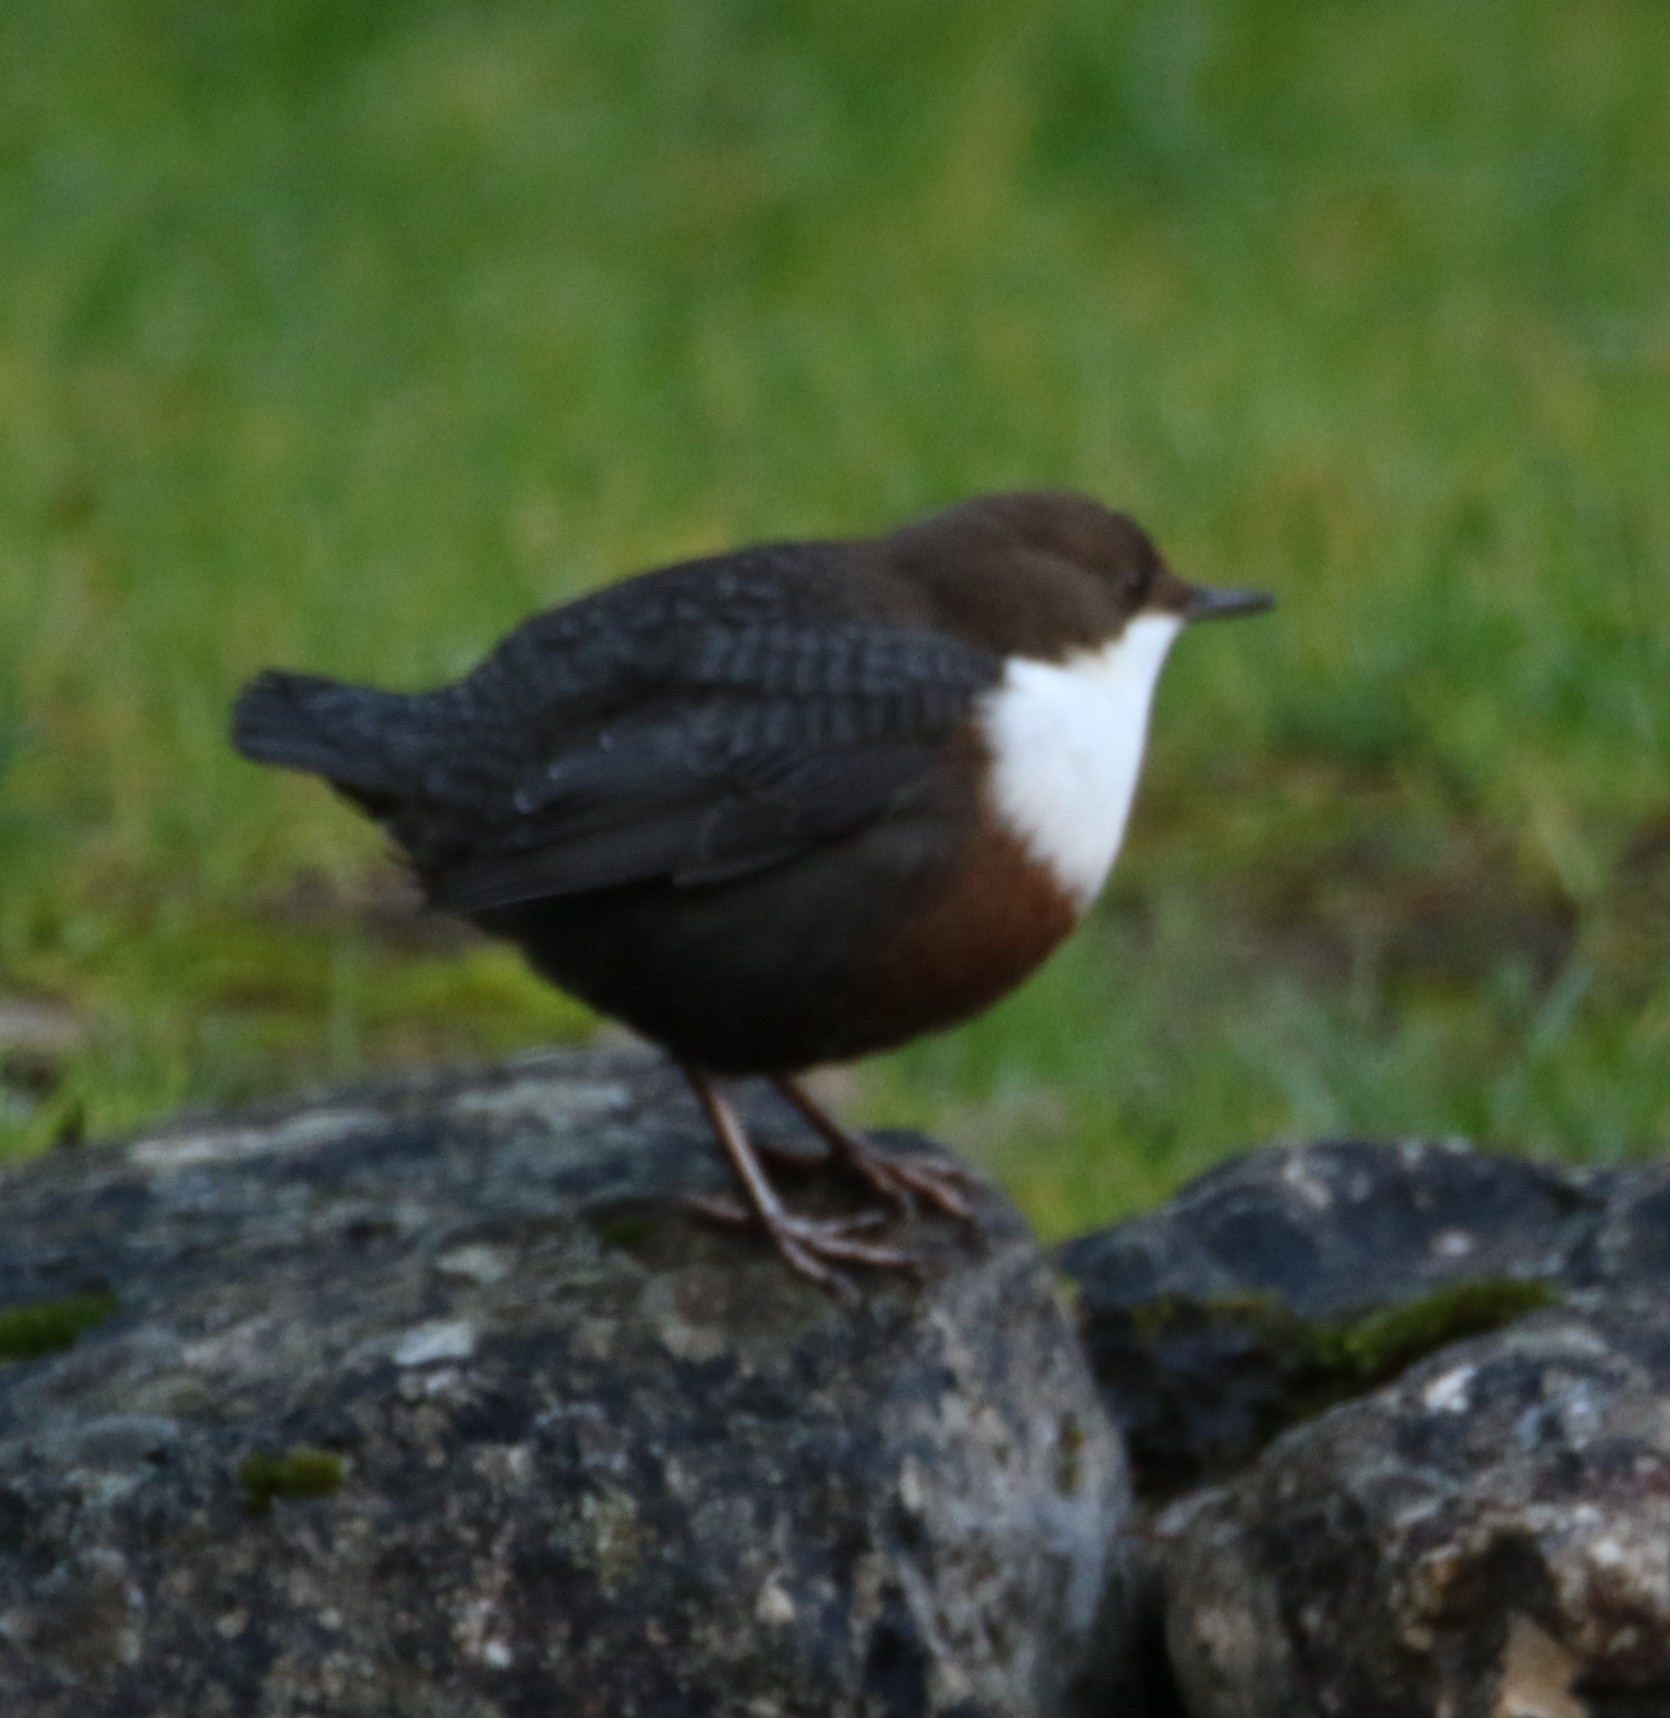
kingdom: Animalia
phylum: Chordata
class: Aves
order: Passeriformes
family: Cinclidae
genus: Cinclus
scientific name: Cinclus cinclus
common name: White-throated dipper
